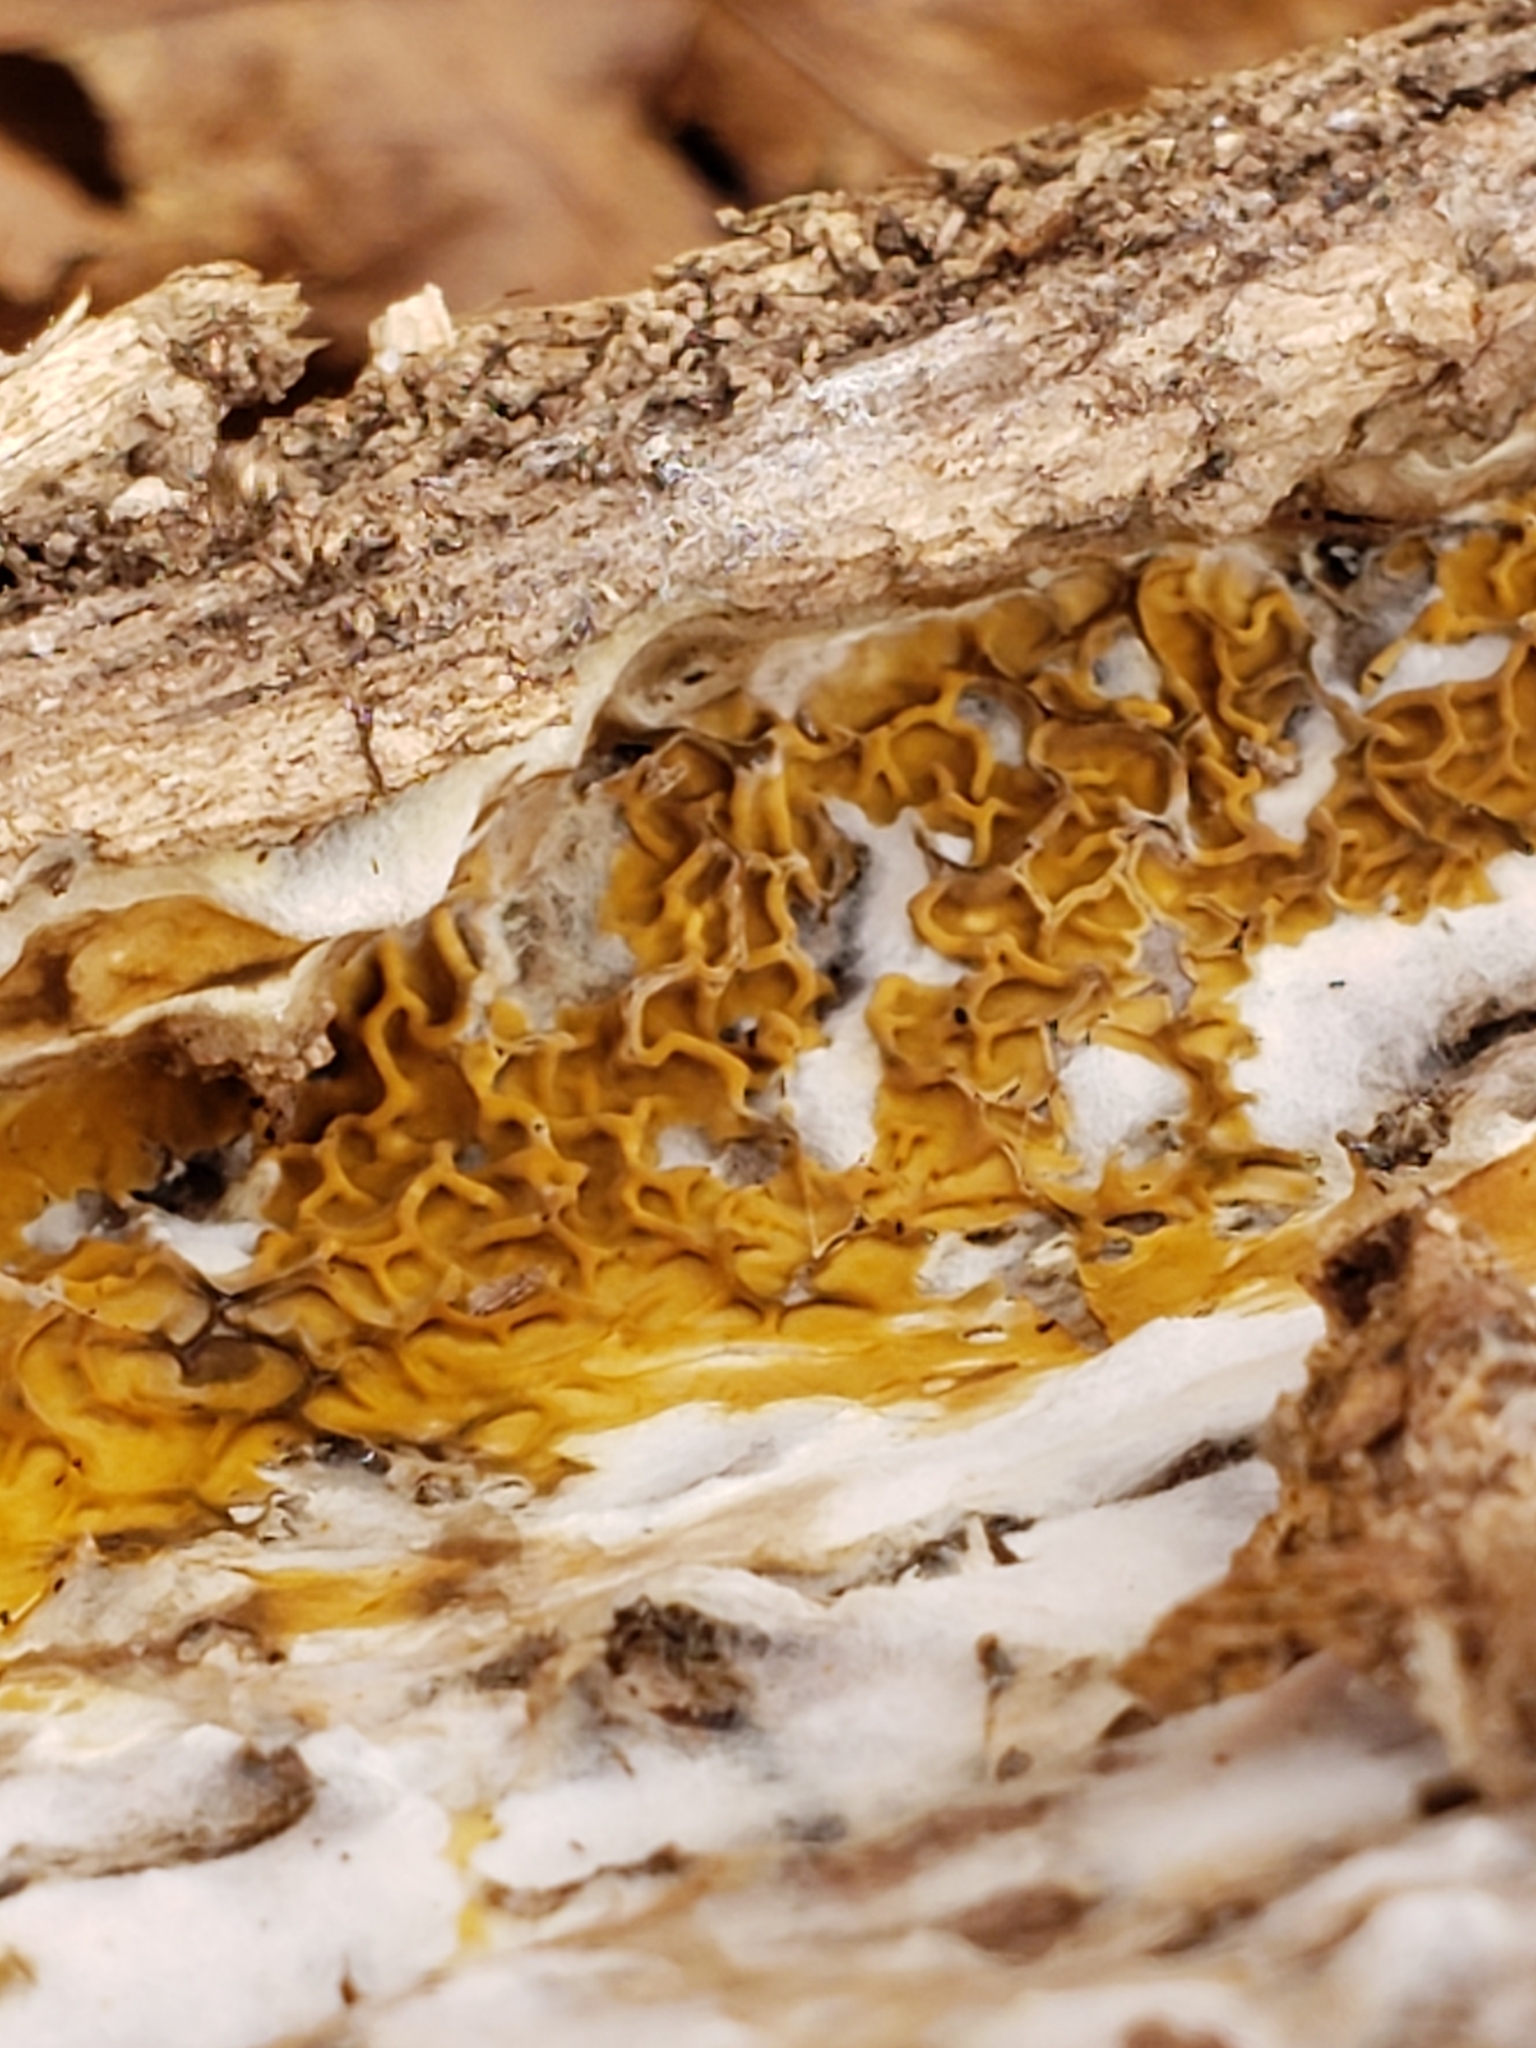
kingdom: Fungi
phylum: Basidiomycota
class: Agaricomycetes
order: Boletales
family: Serpulaceae
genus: Serpula
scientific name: Serpula himantioides
